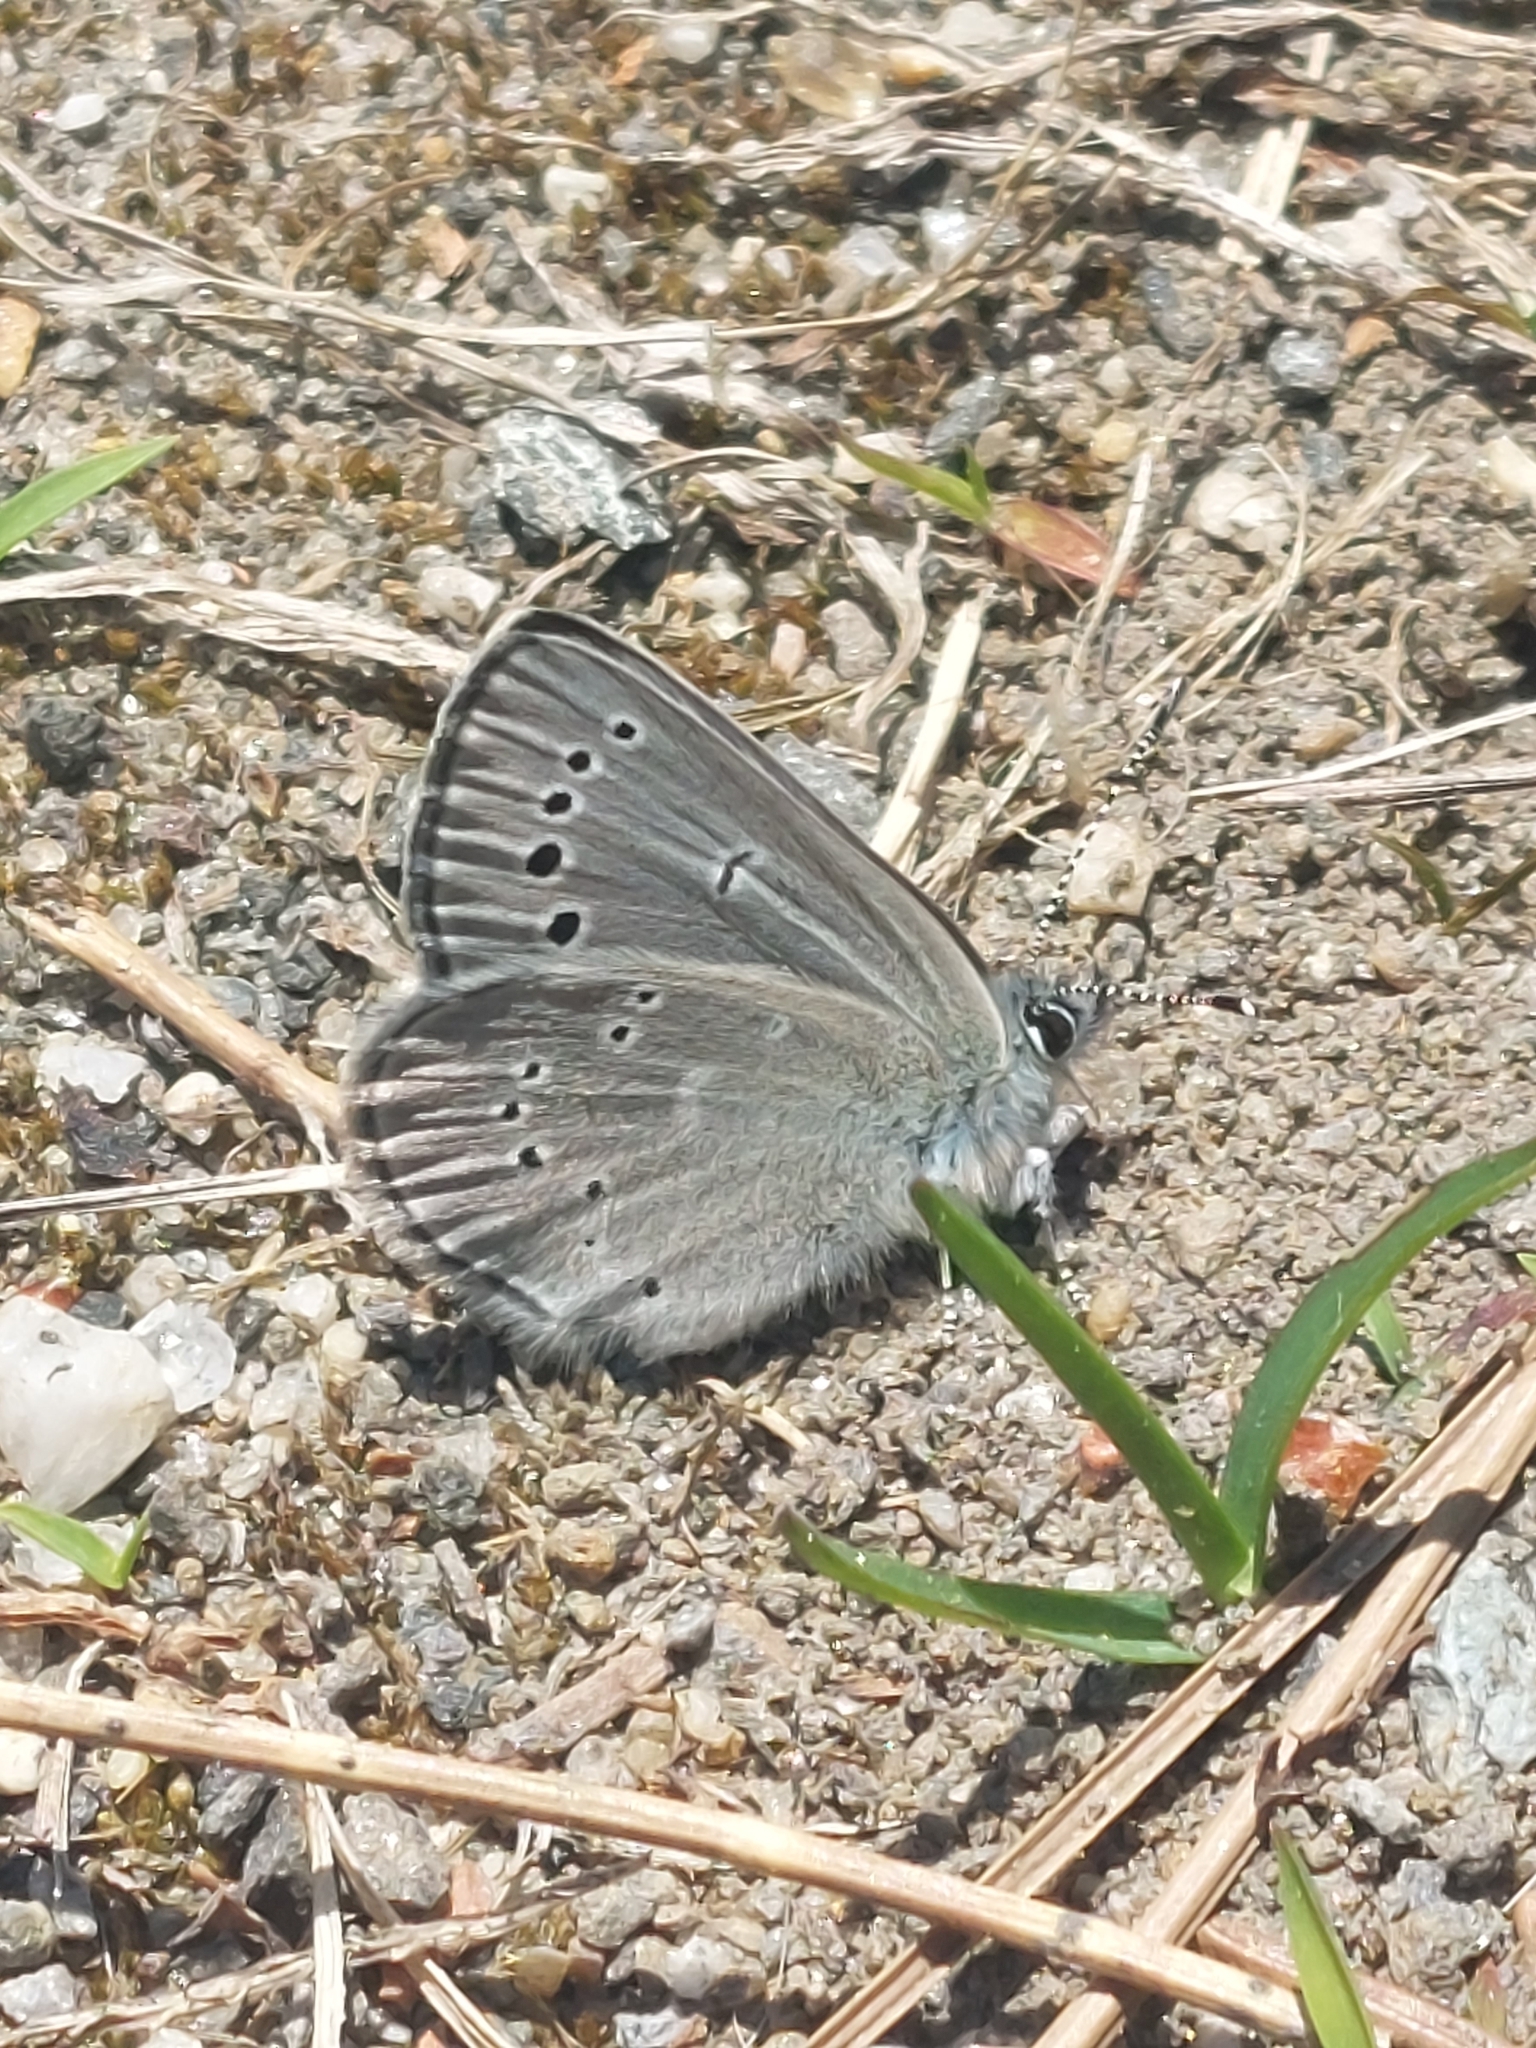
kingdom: Animalia
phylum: Arthropoda
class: Insecta
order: Lepidoptera
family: Lycaenidae
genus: Glaucopsyche
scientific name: Glaucopsyche lygdamus
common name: Silvery blue
